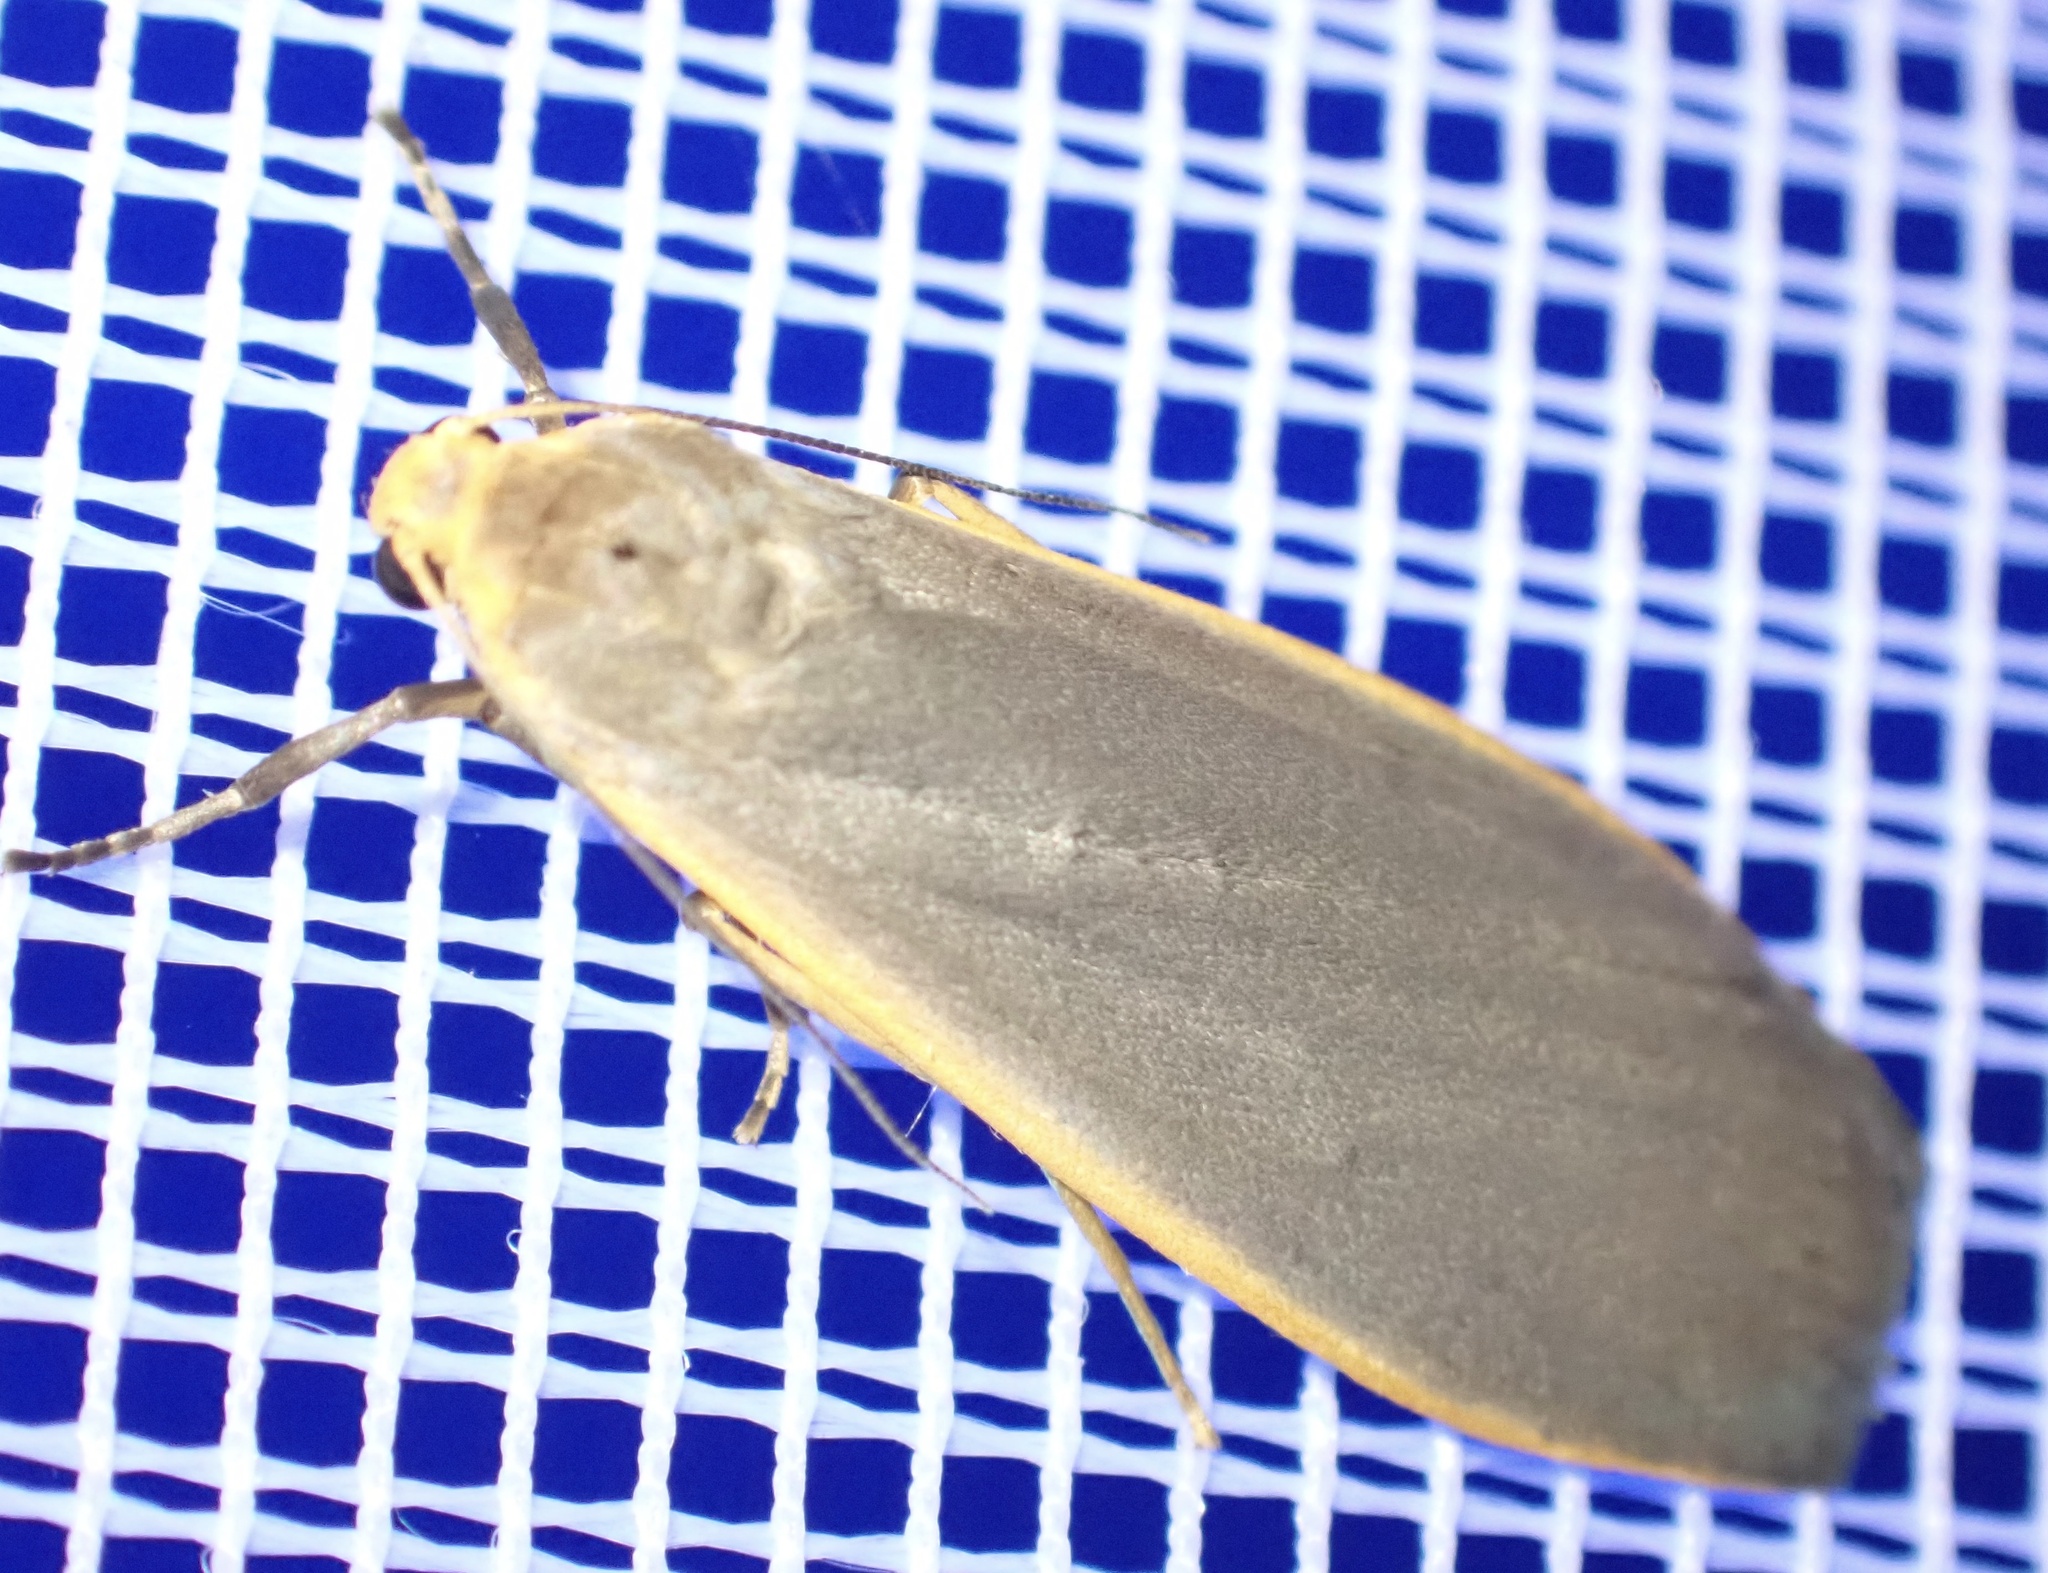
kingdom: Animalia
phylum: Arthropoda
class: Insecta
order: Lepidoptera
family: Erebidae
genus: Eilema
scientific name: Eilema plana
